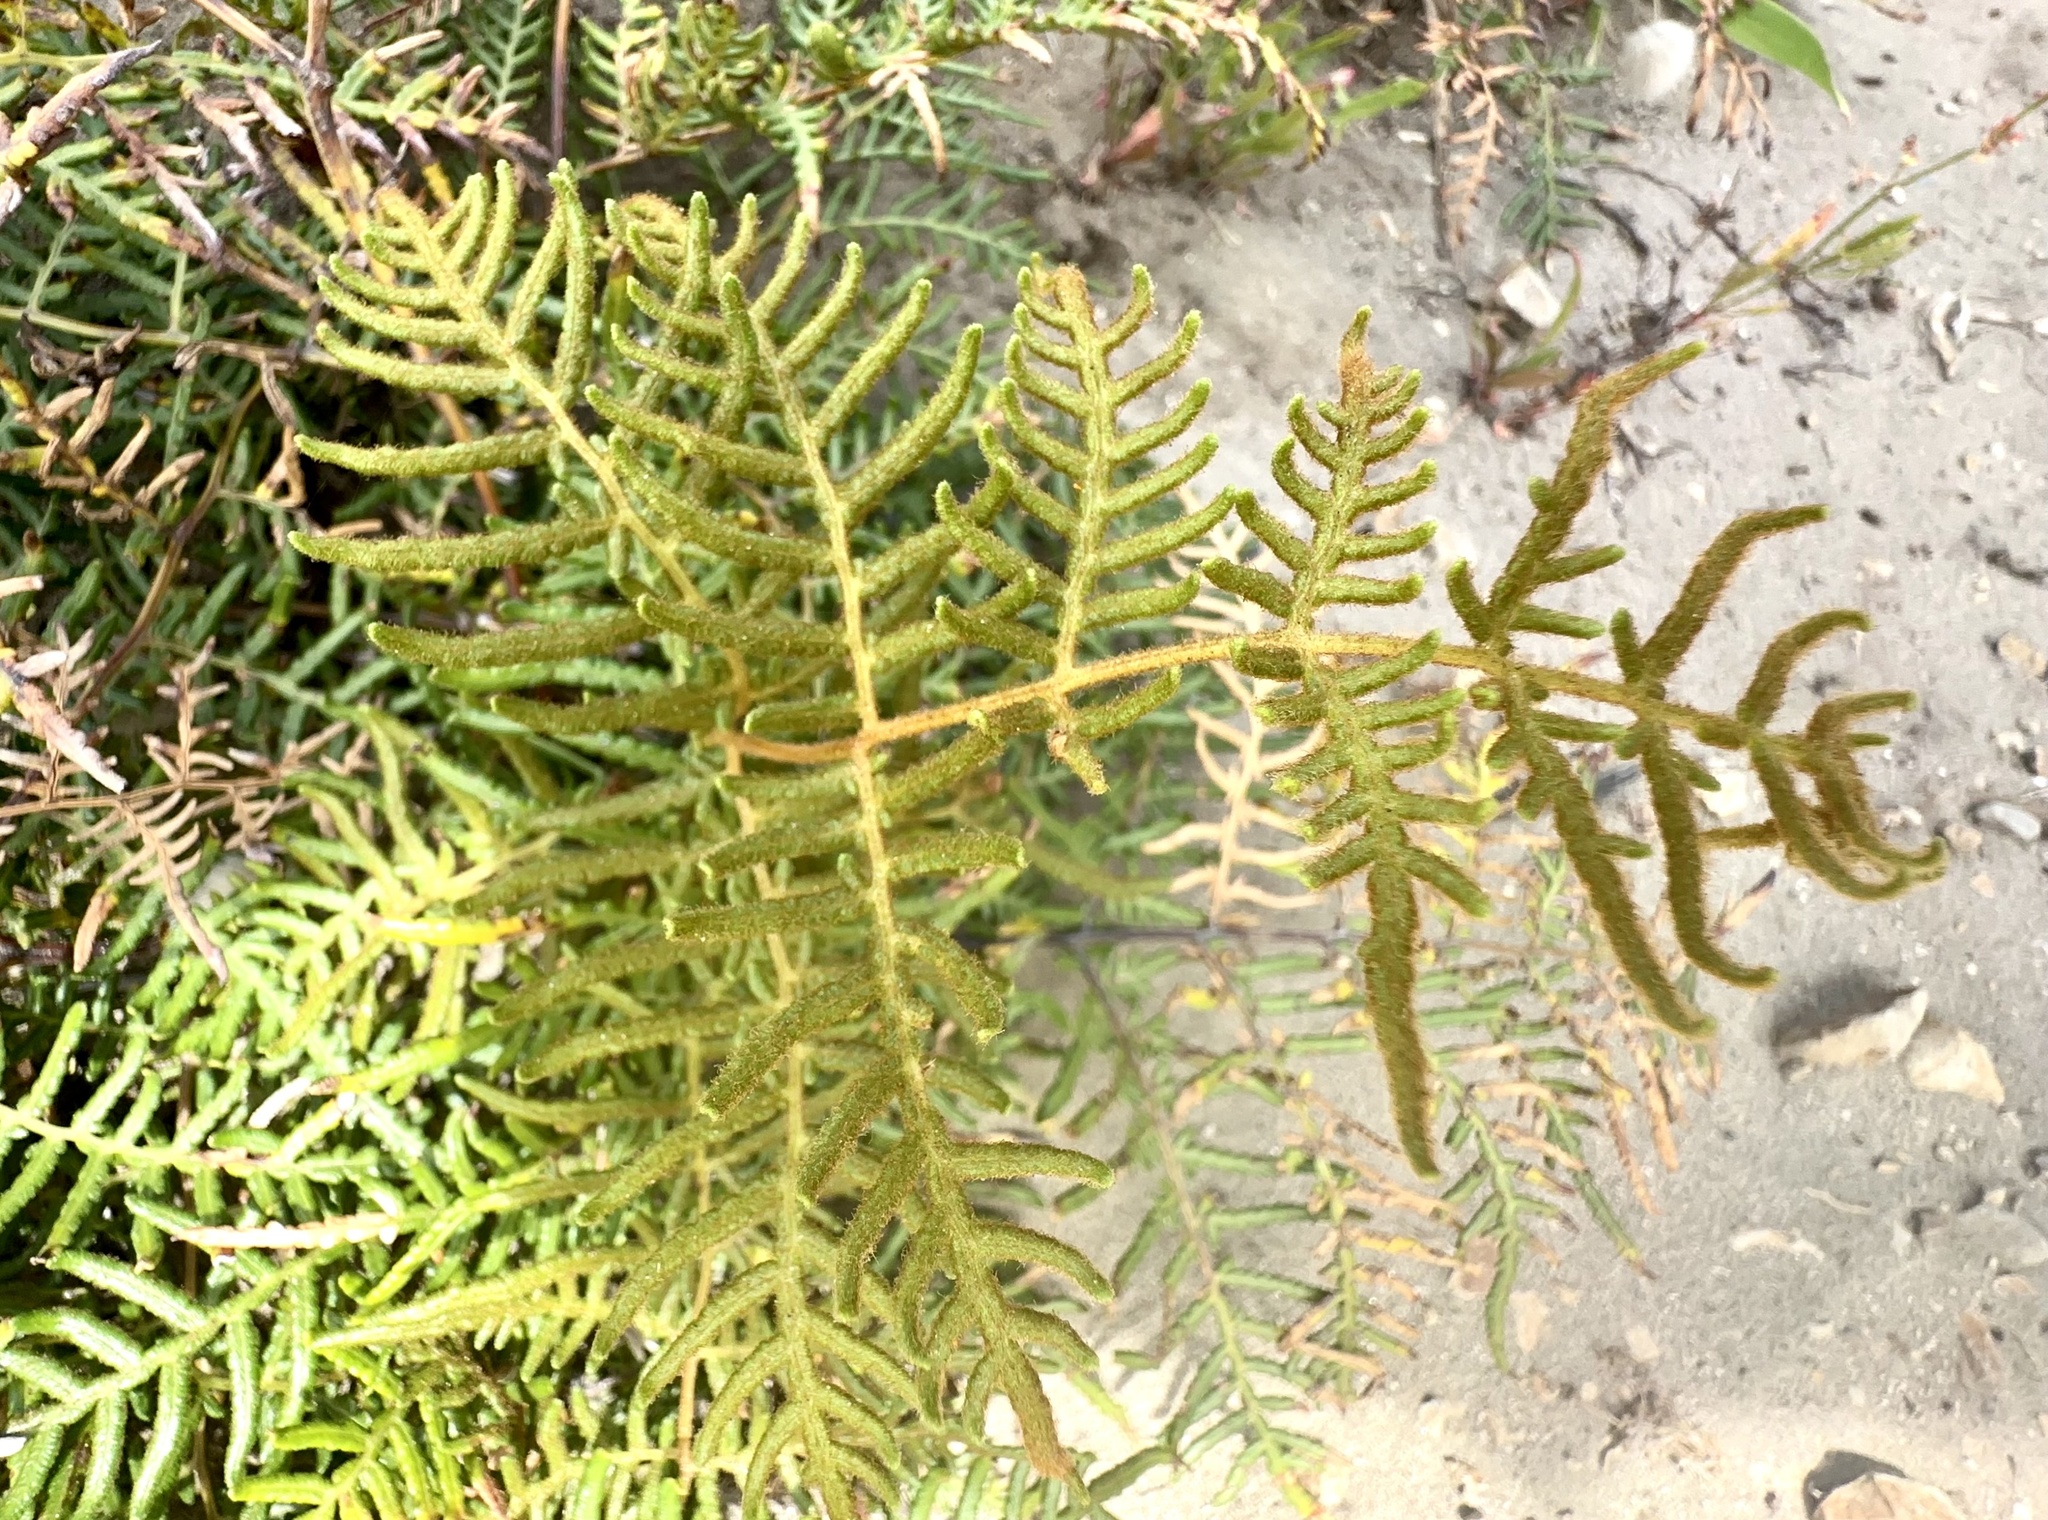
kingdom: Plantae
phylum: Tracheophyta
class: Polypodiopsida
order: Polypodiales
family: Dennstaedtiaceae
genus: Pteridium
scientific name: Pteridium esculentum
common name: Bracken fern
